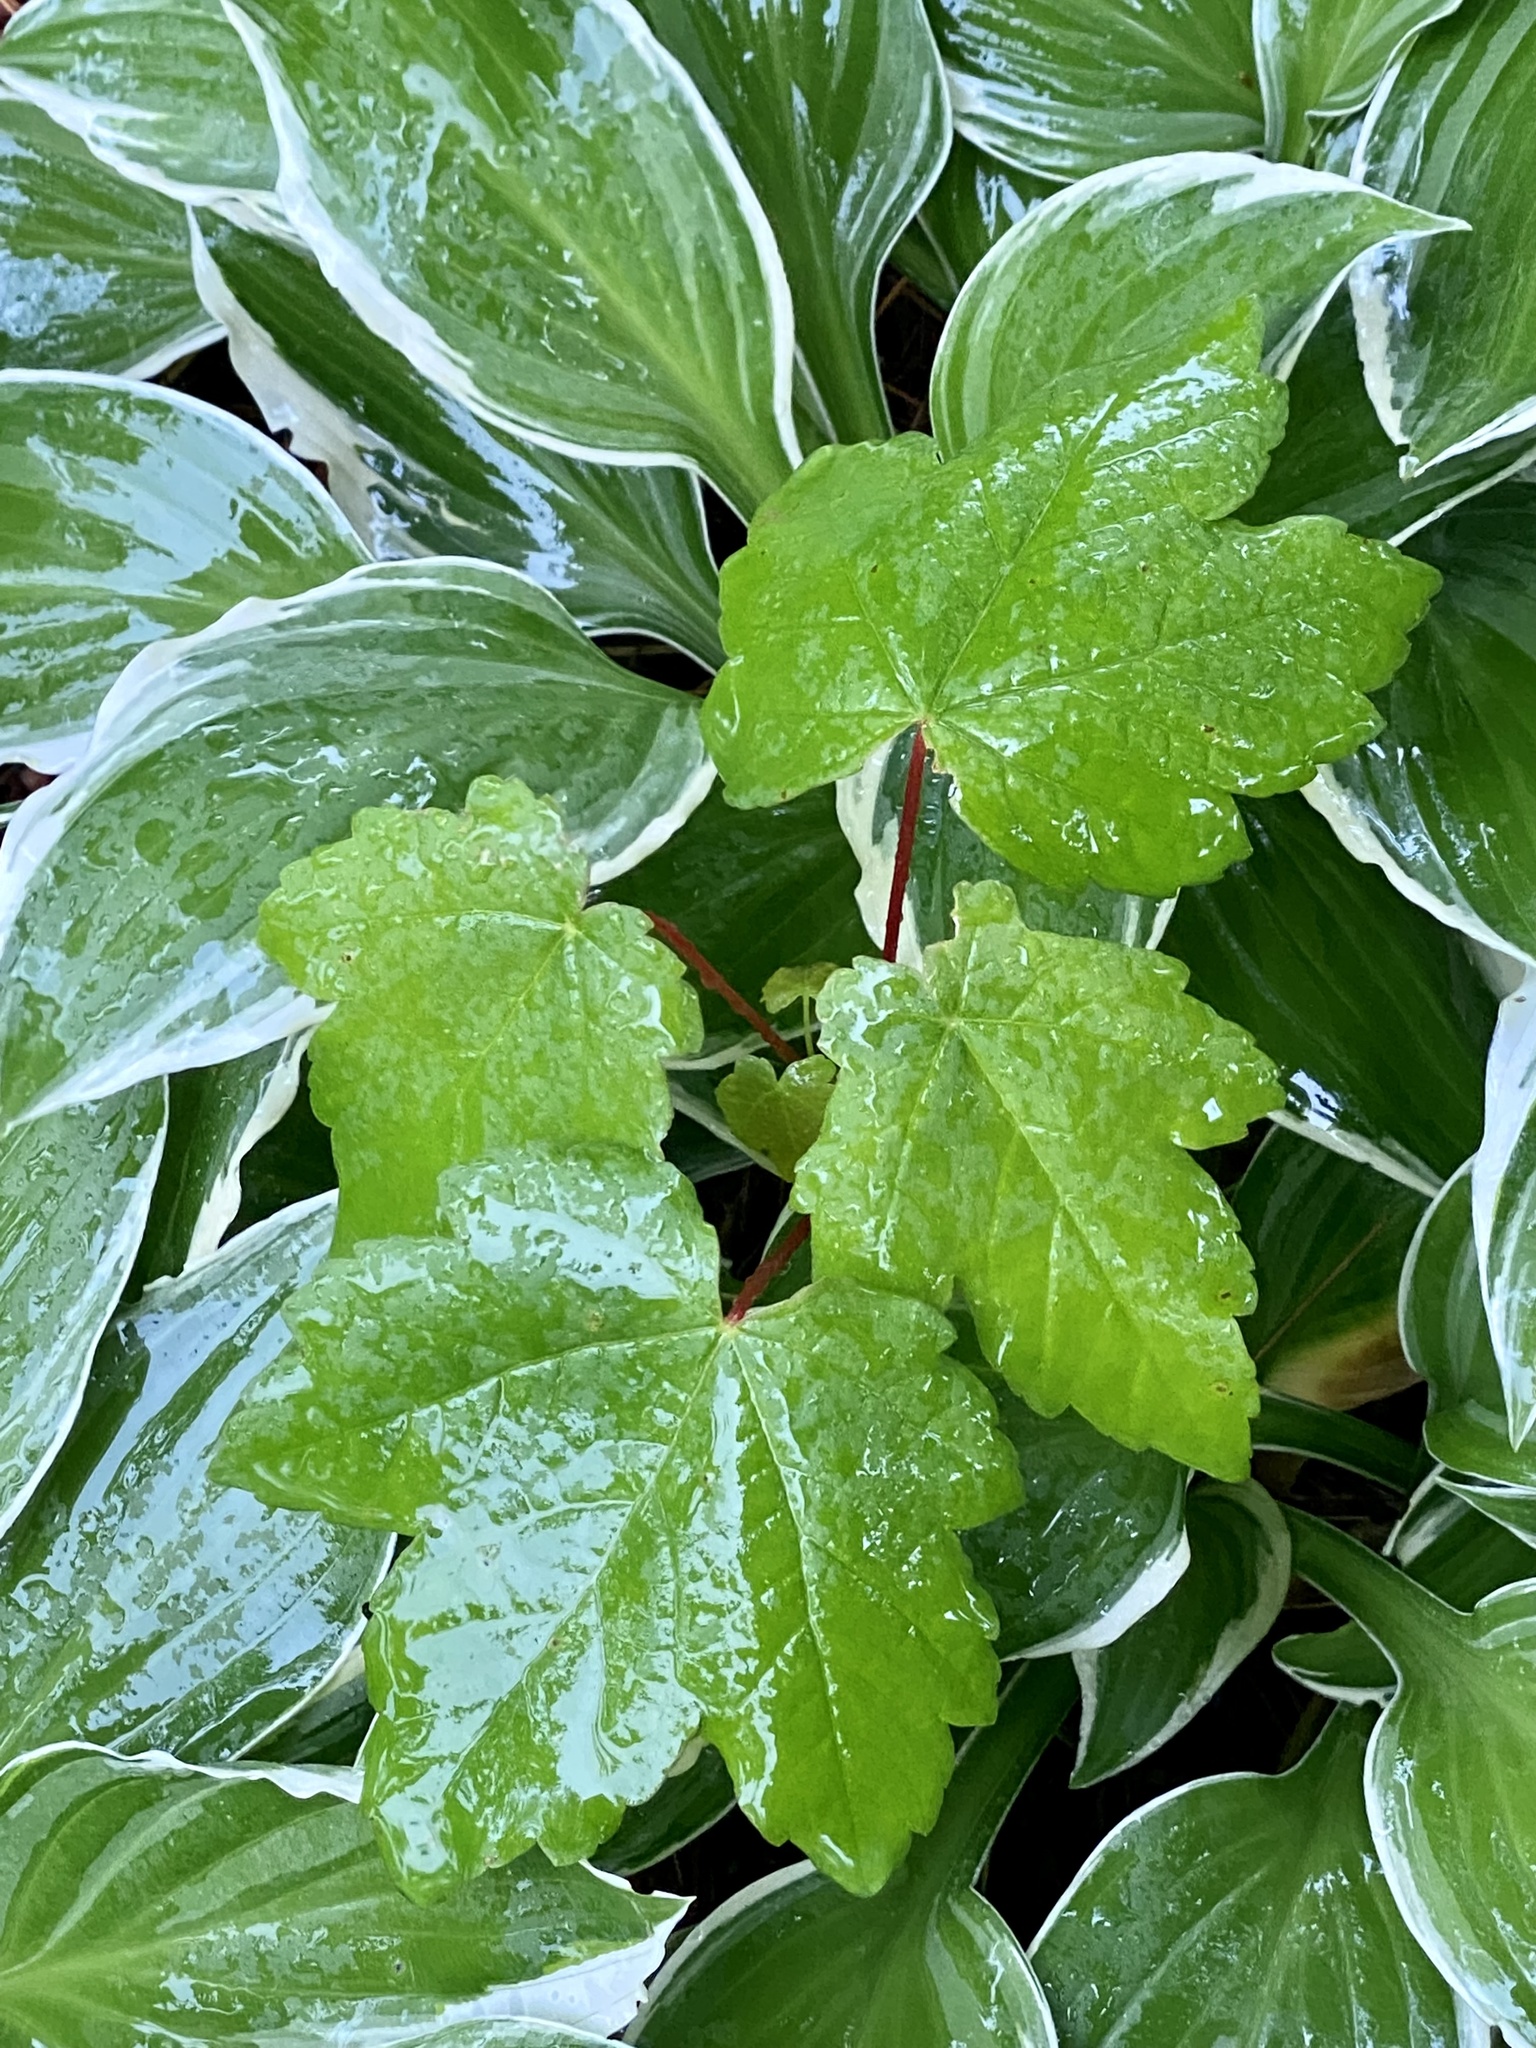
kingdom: Plantae
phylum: Tracheophyta
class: Magnoliopsida
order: Sapindales
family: Sapindaceae
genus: Acer
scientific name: Acer pseudoplatanus
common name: Sycamore
